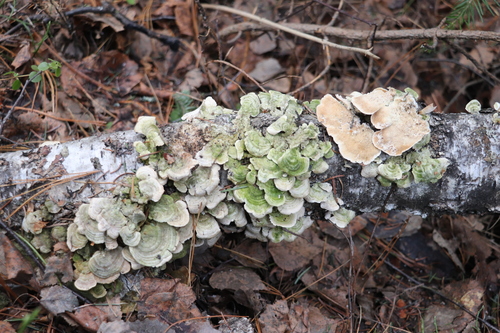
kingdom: Fungi
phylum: Basidiomycota
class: Agaricomycetes
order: Hymenochaetales
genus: Trichaptum
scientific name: Trichaptum biforme
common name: Violet-toothed polypore
